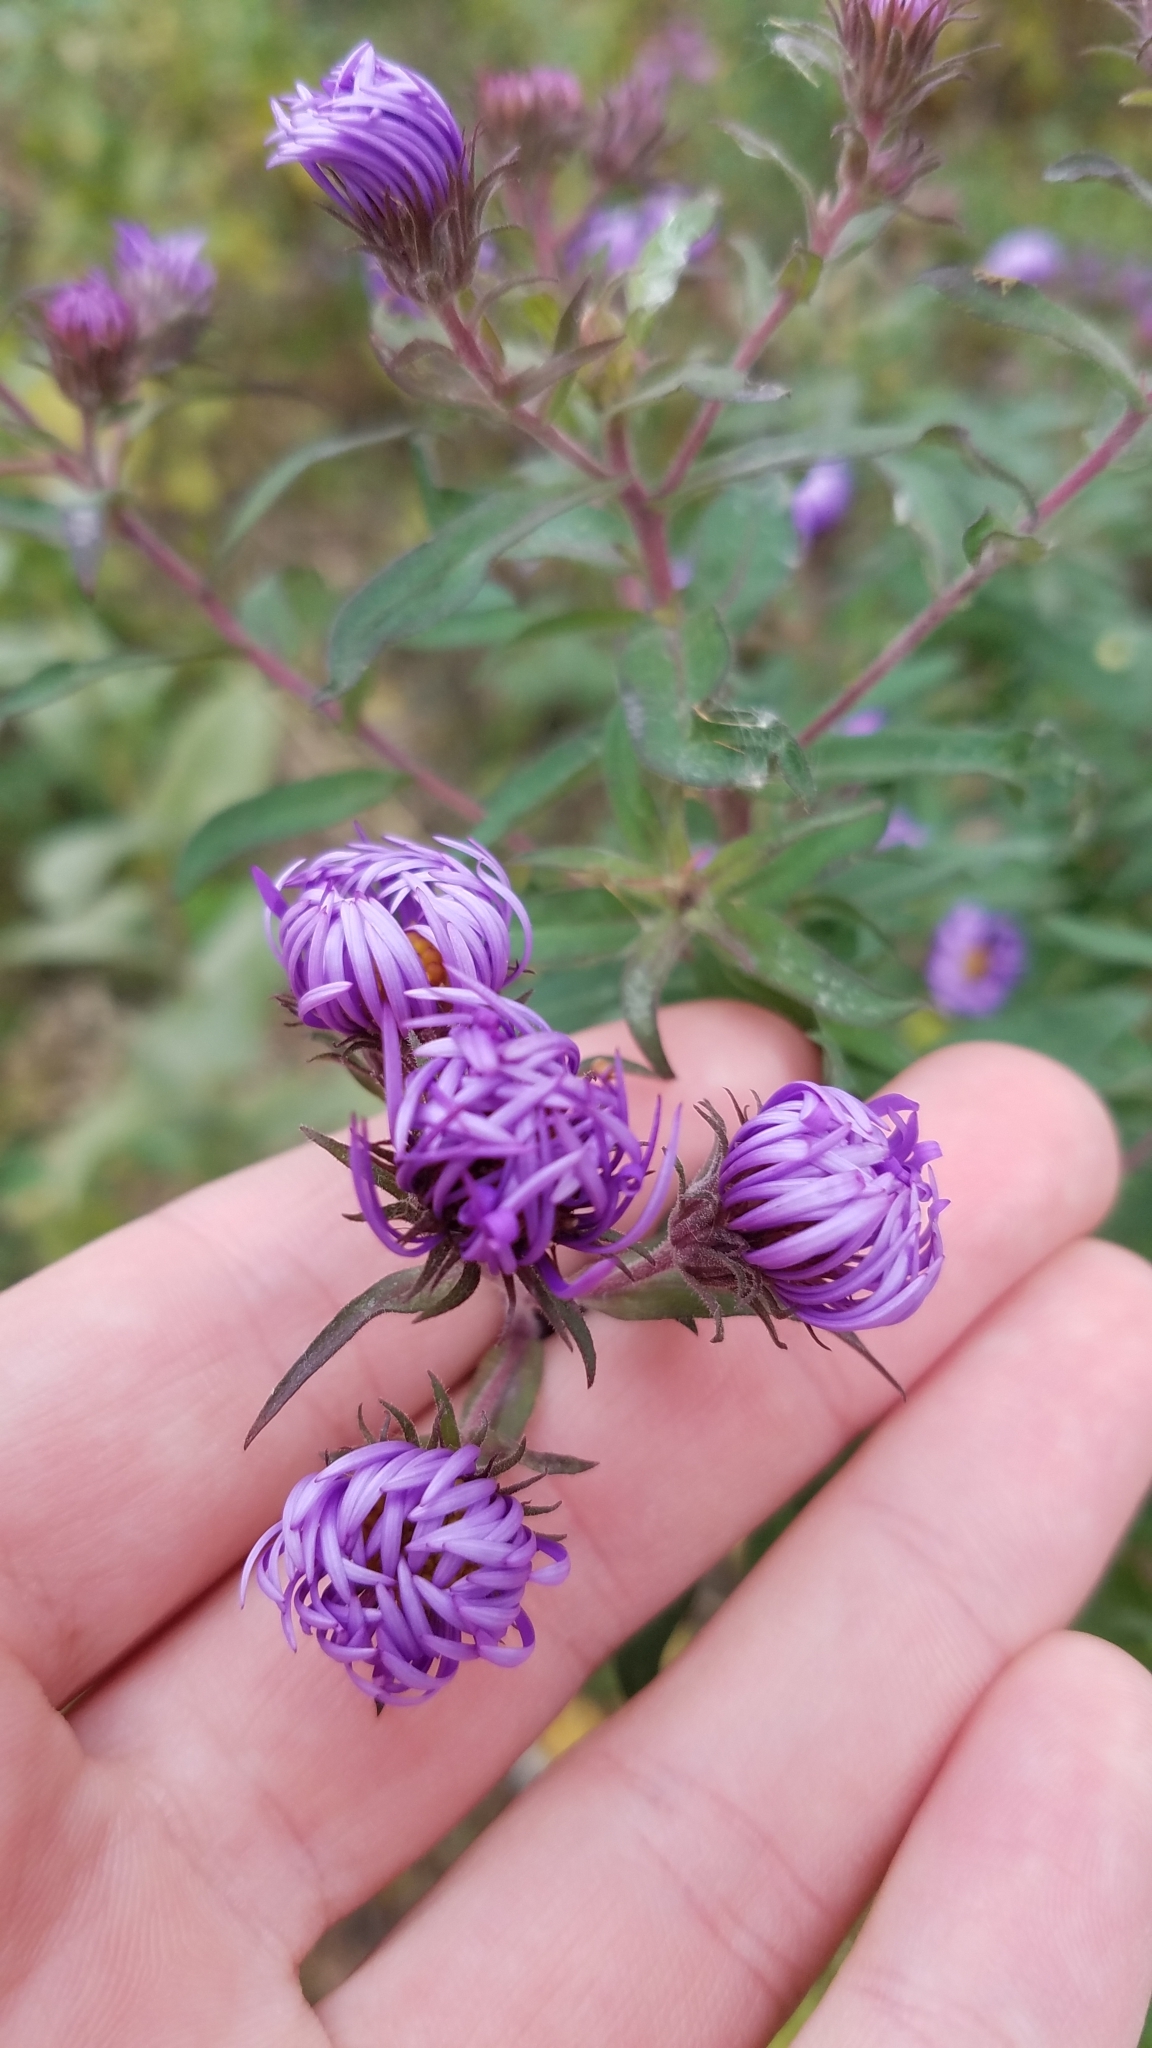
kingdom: Plantae
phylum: Tracheophyta
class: Magnoliopsida
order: Asterales
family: Asteraceae
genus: Symphyotrichum
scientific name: Symphyotrichum novae-angliae
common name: Michaelmas daisy
